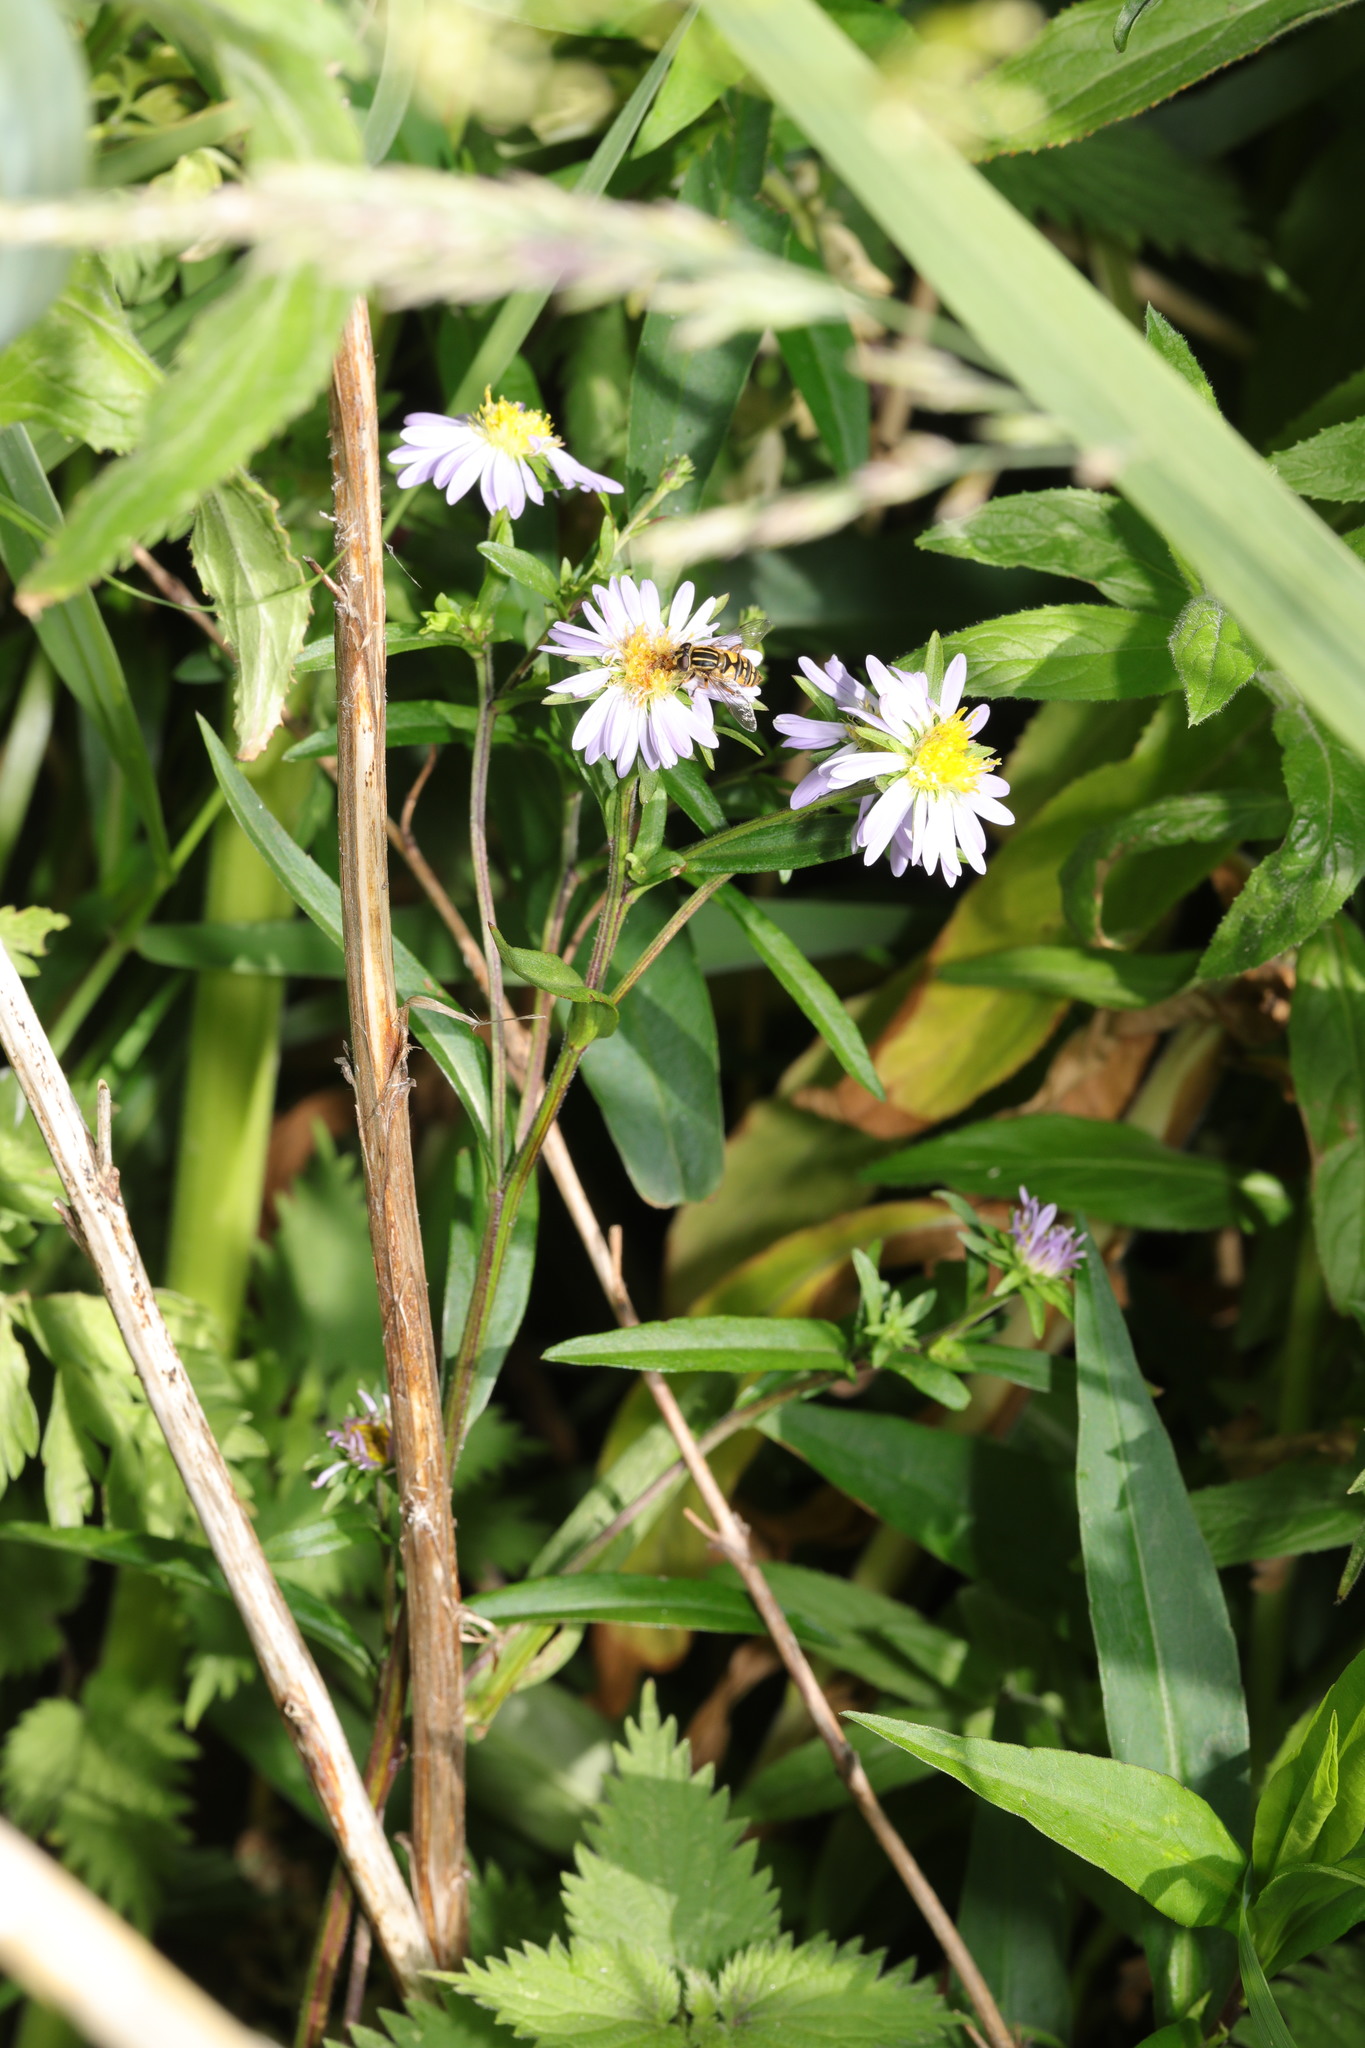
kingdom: Plantae
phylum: Tracheophyta
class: Magnoliopsida
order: Asterales
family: Asteraceae
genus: Symphyotrichum
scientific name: Symphyotrichum
